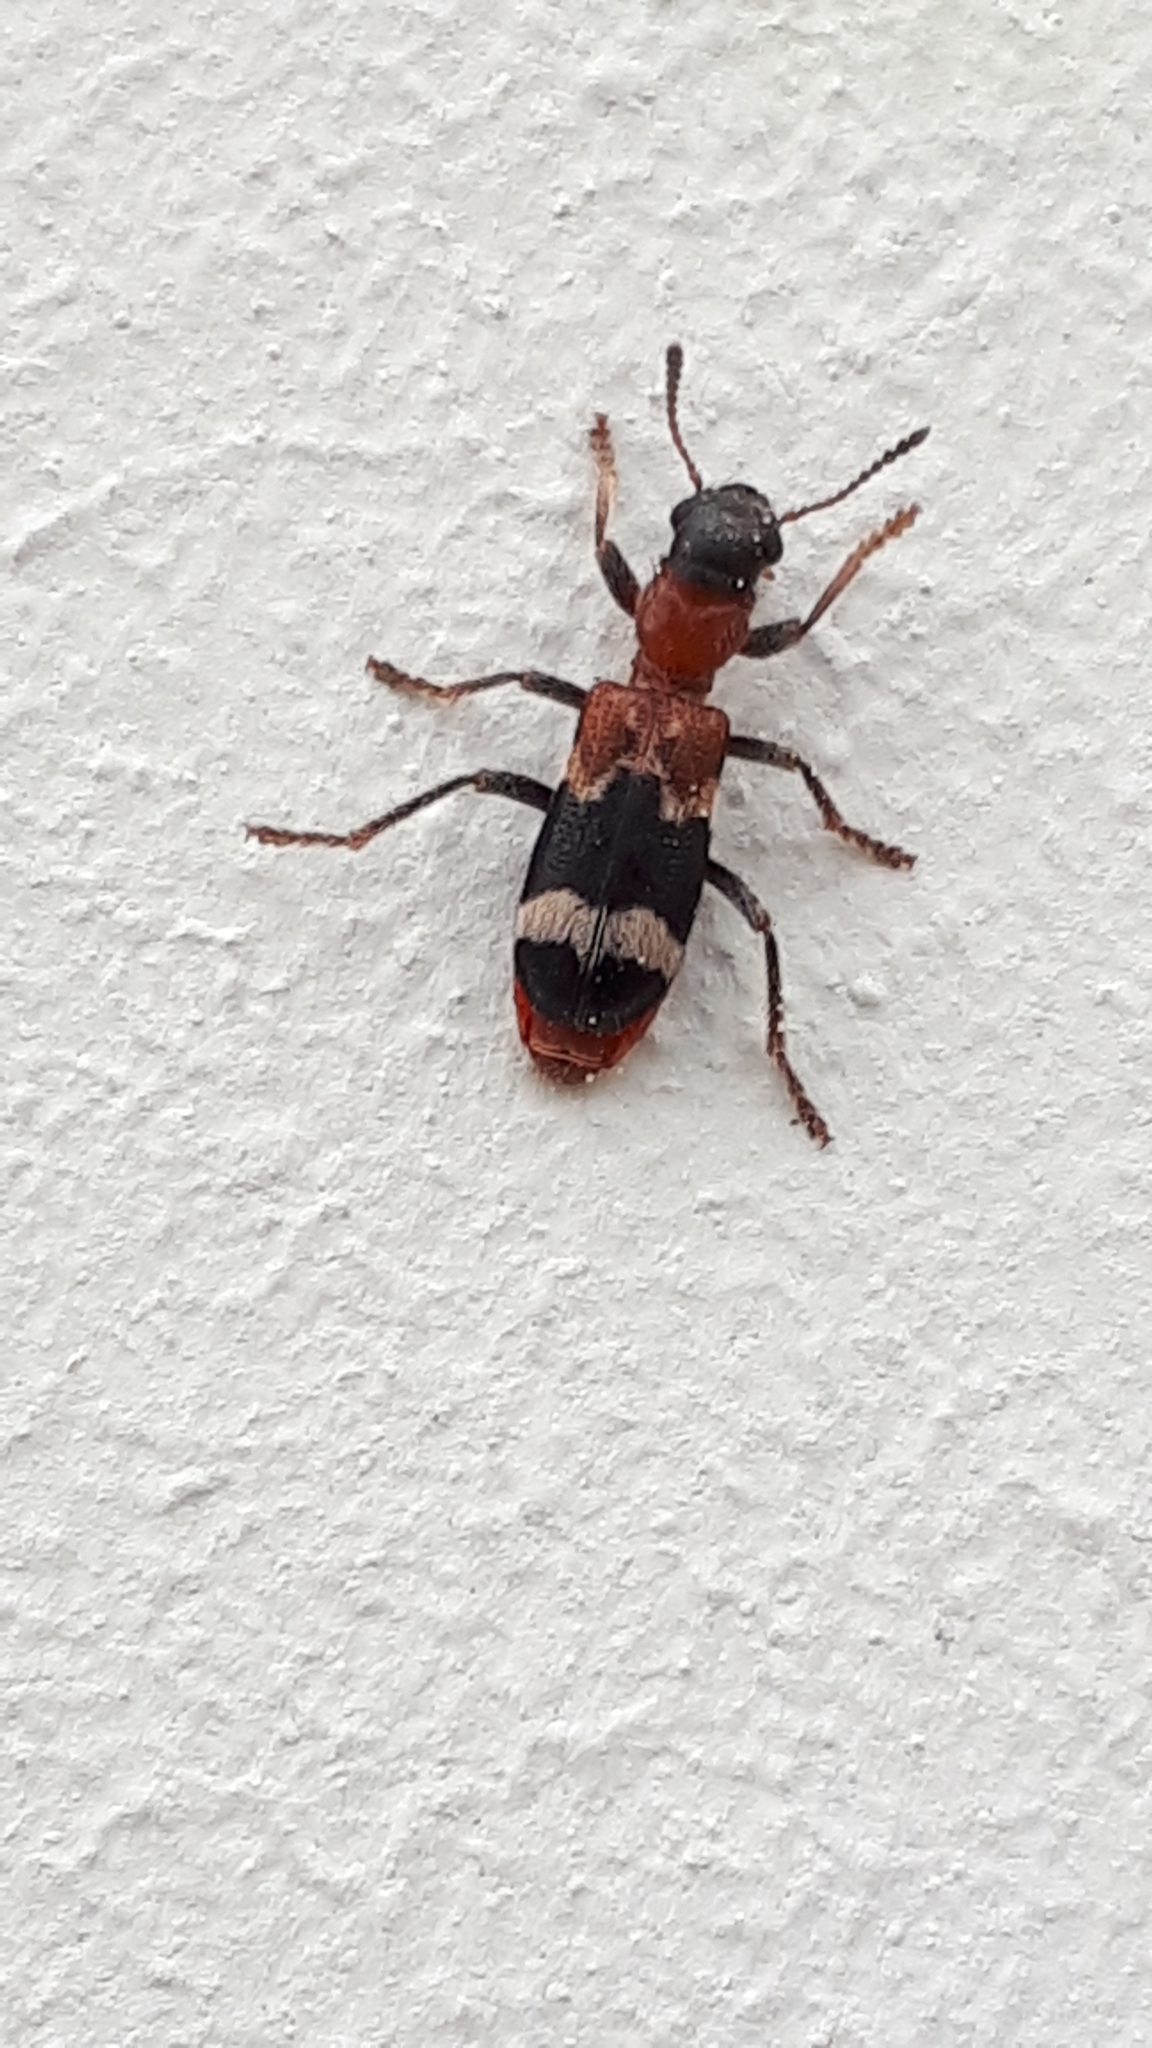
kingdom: Animalia
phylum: Arthropoda
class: Insecta
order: Coleoptera
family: Cleridae
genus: Thanasimus
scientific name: Thanasimus formicarius
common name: Ant beetle
